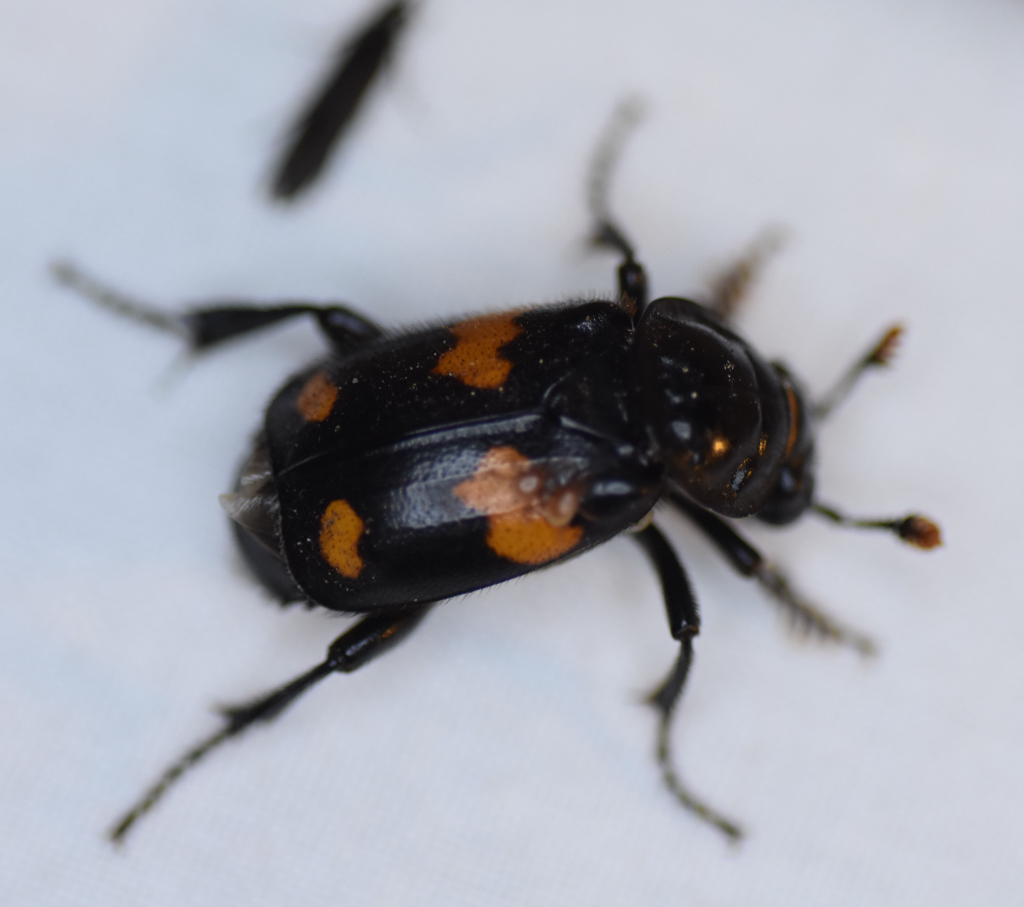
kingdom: Animalia
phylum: Arthropoda
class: Insecta
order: Coleoptera
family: Staphylinidae
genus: Nicrophorus
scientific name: Nicrophorus orbicollis
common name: Roundneck sexton beetle
